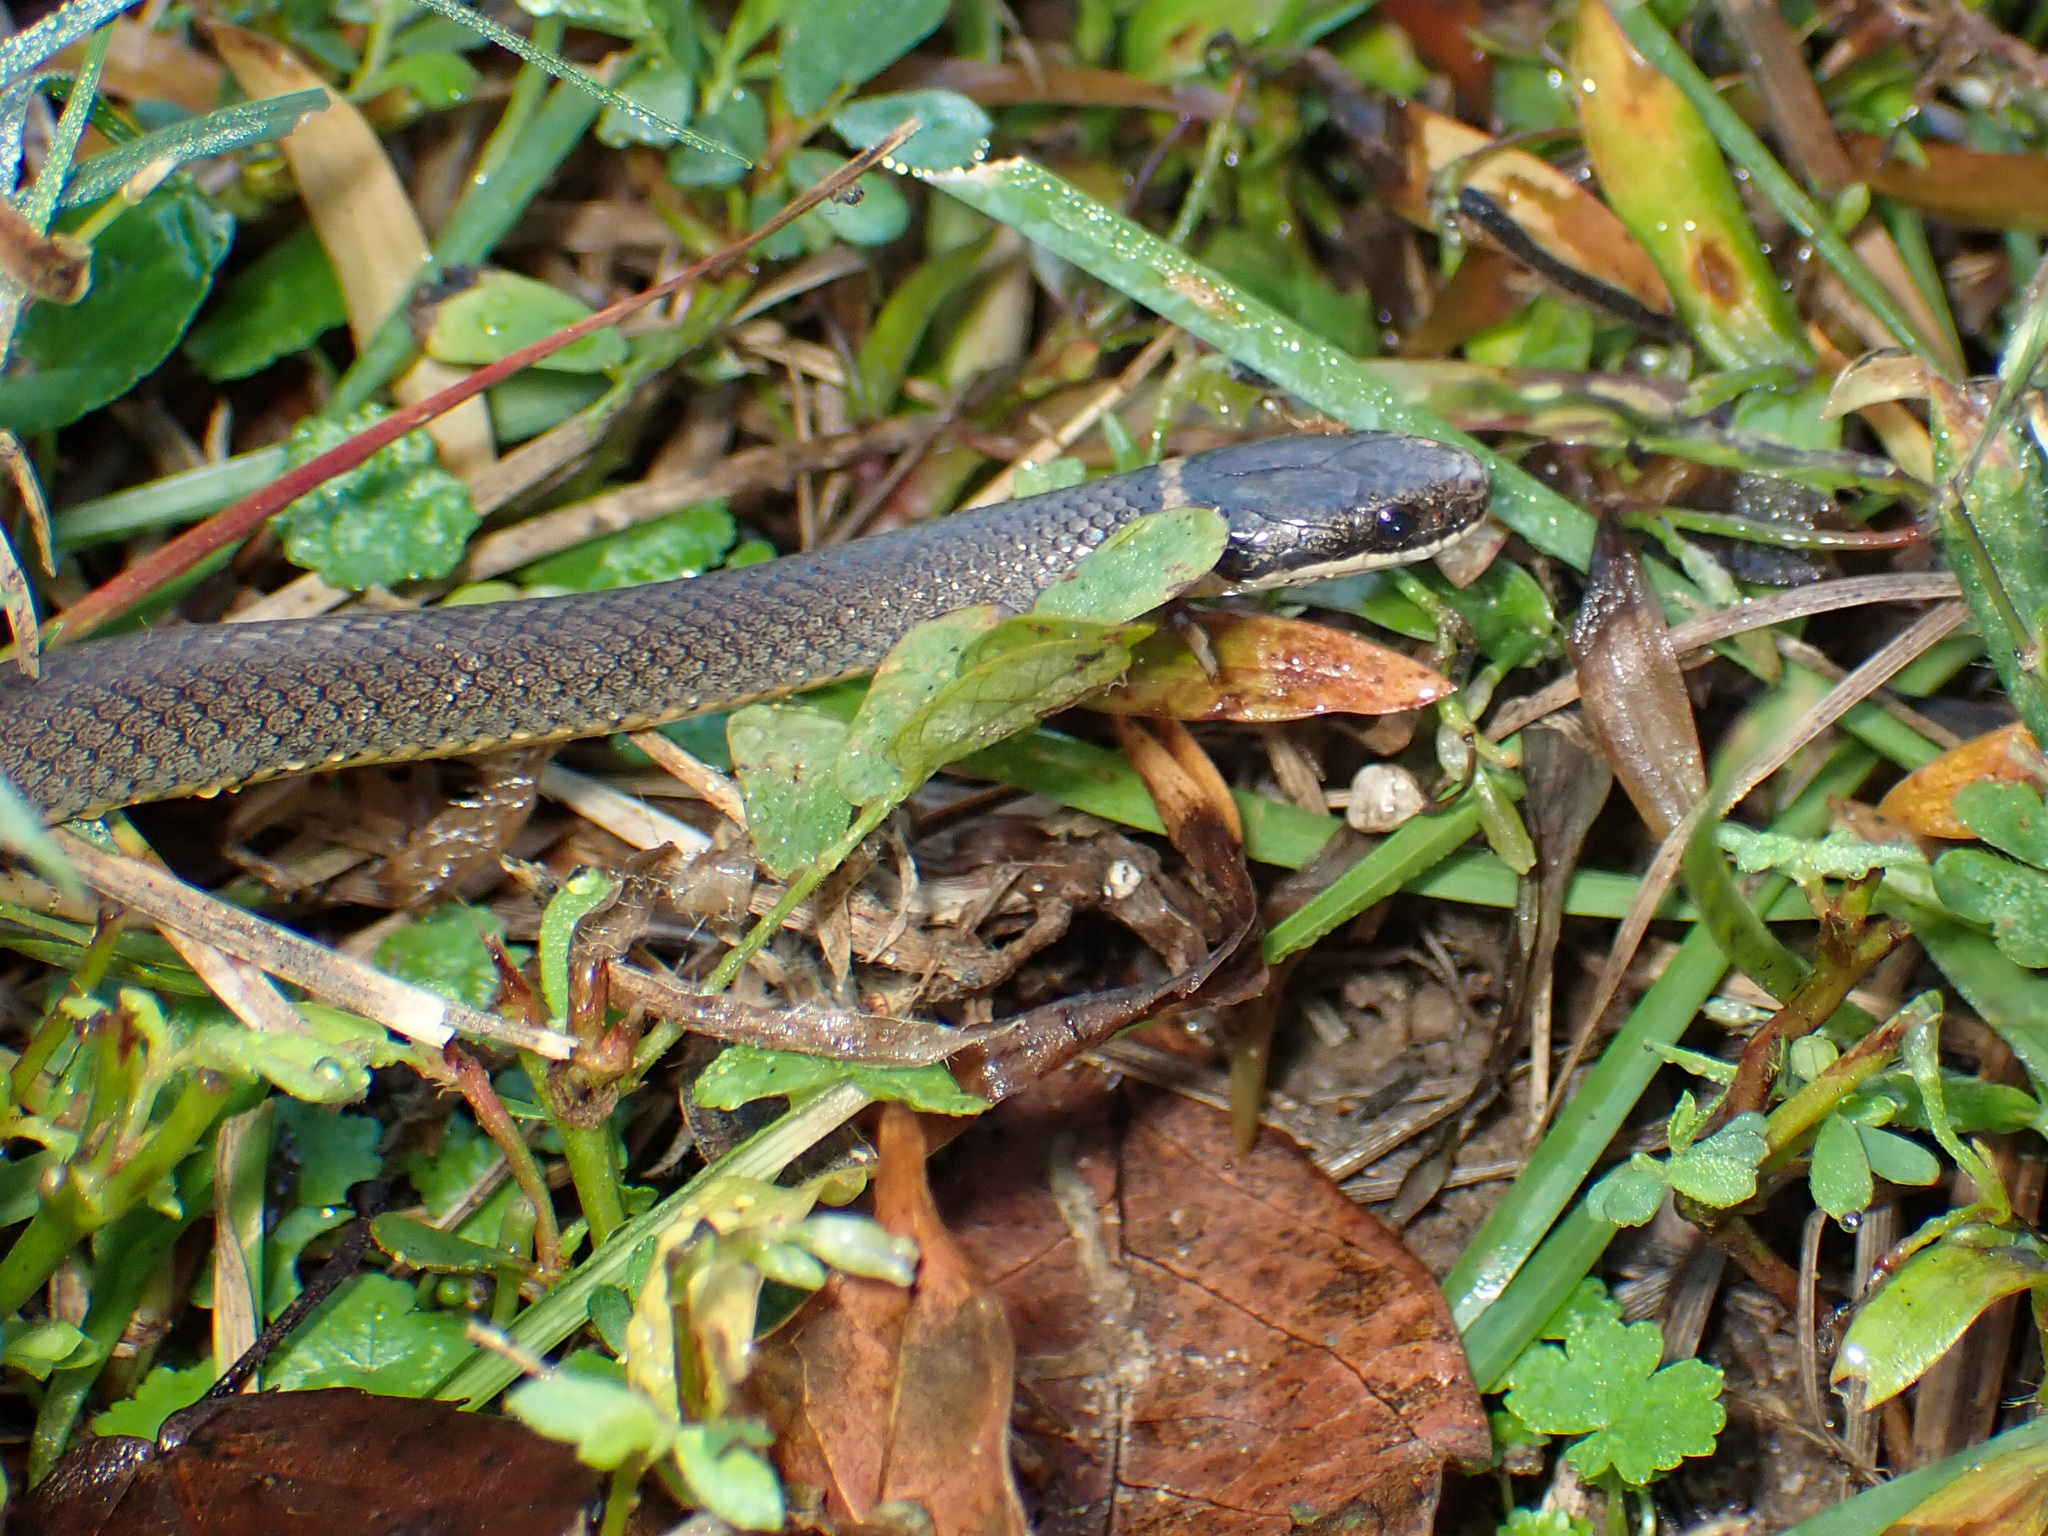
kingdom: Animalia
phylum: Chordata
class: Squamata
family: Colubridae
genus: Diadophis
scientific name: Diadophis punctatus
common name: Ringneck snake
